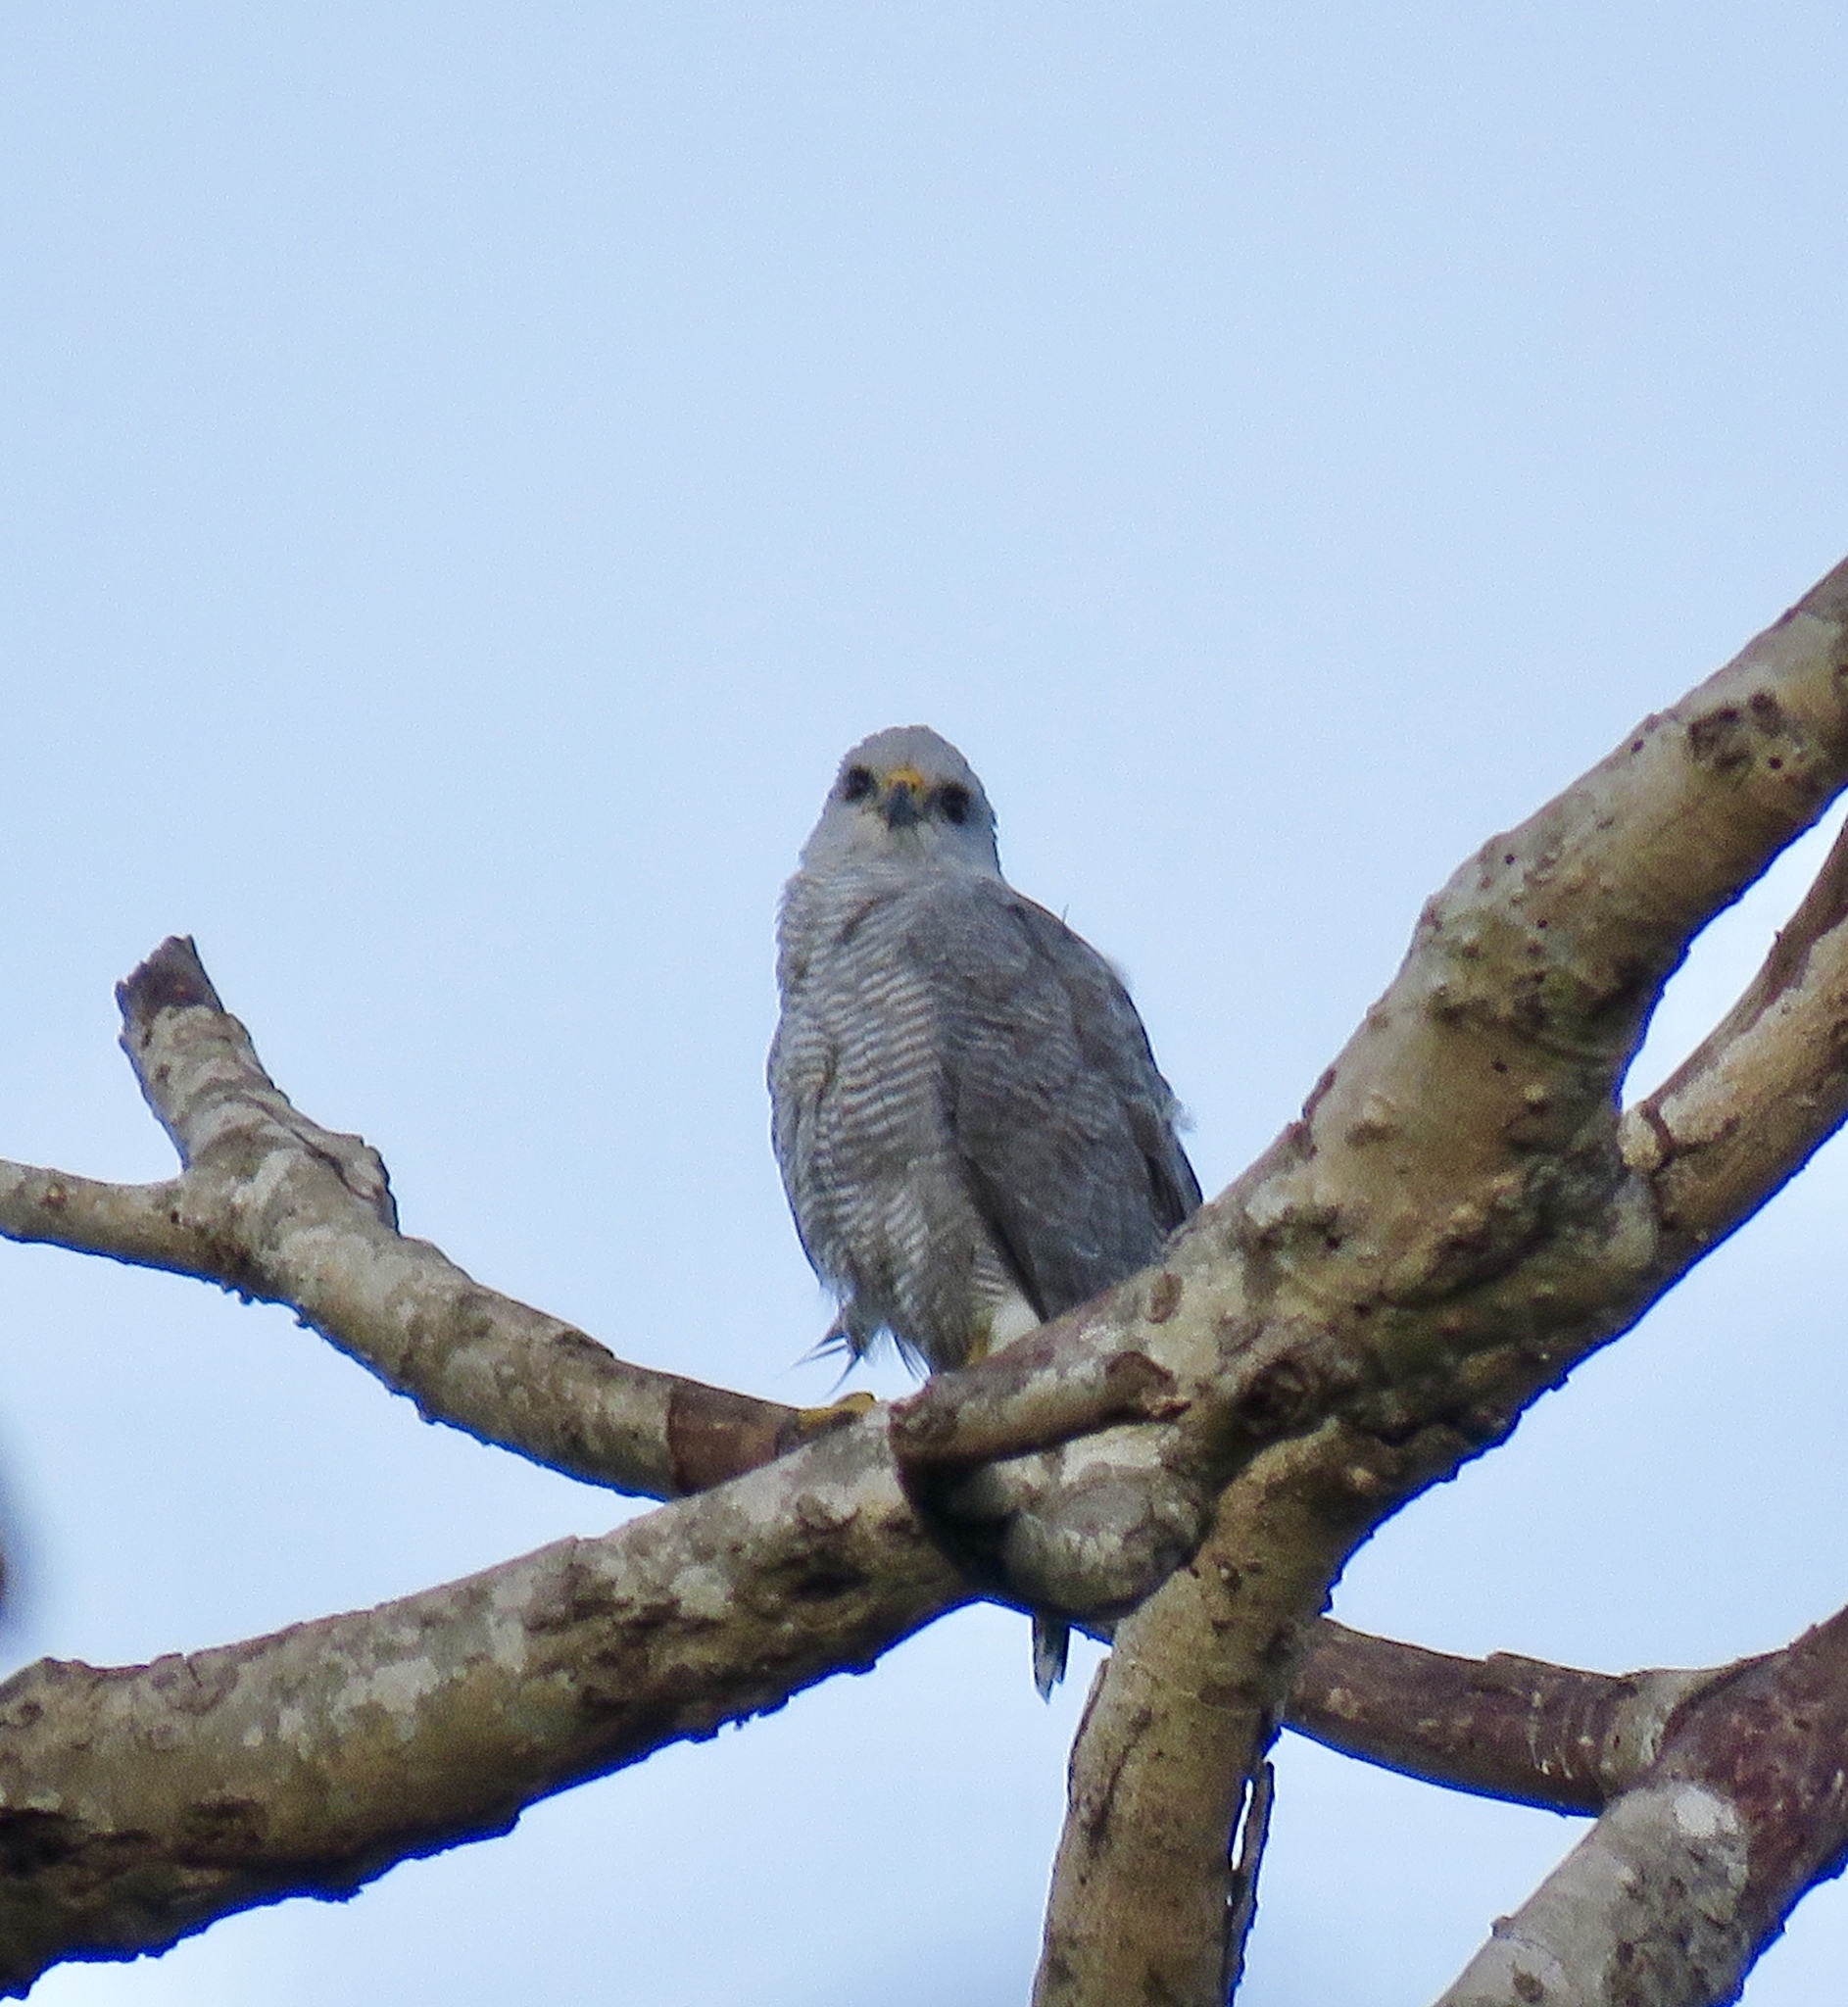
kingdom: Animalia
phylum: Chordata
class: Aves
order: Accipitriformes
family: Accipitridae
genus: Buteo
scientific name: Buteo nitidus
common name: Grey-lined hawk
